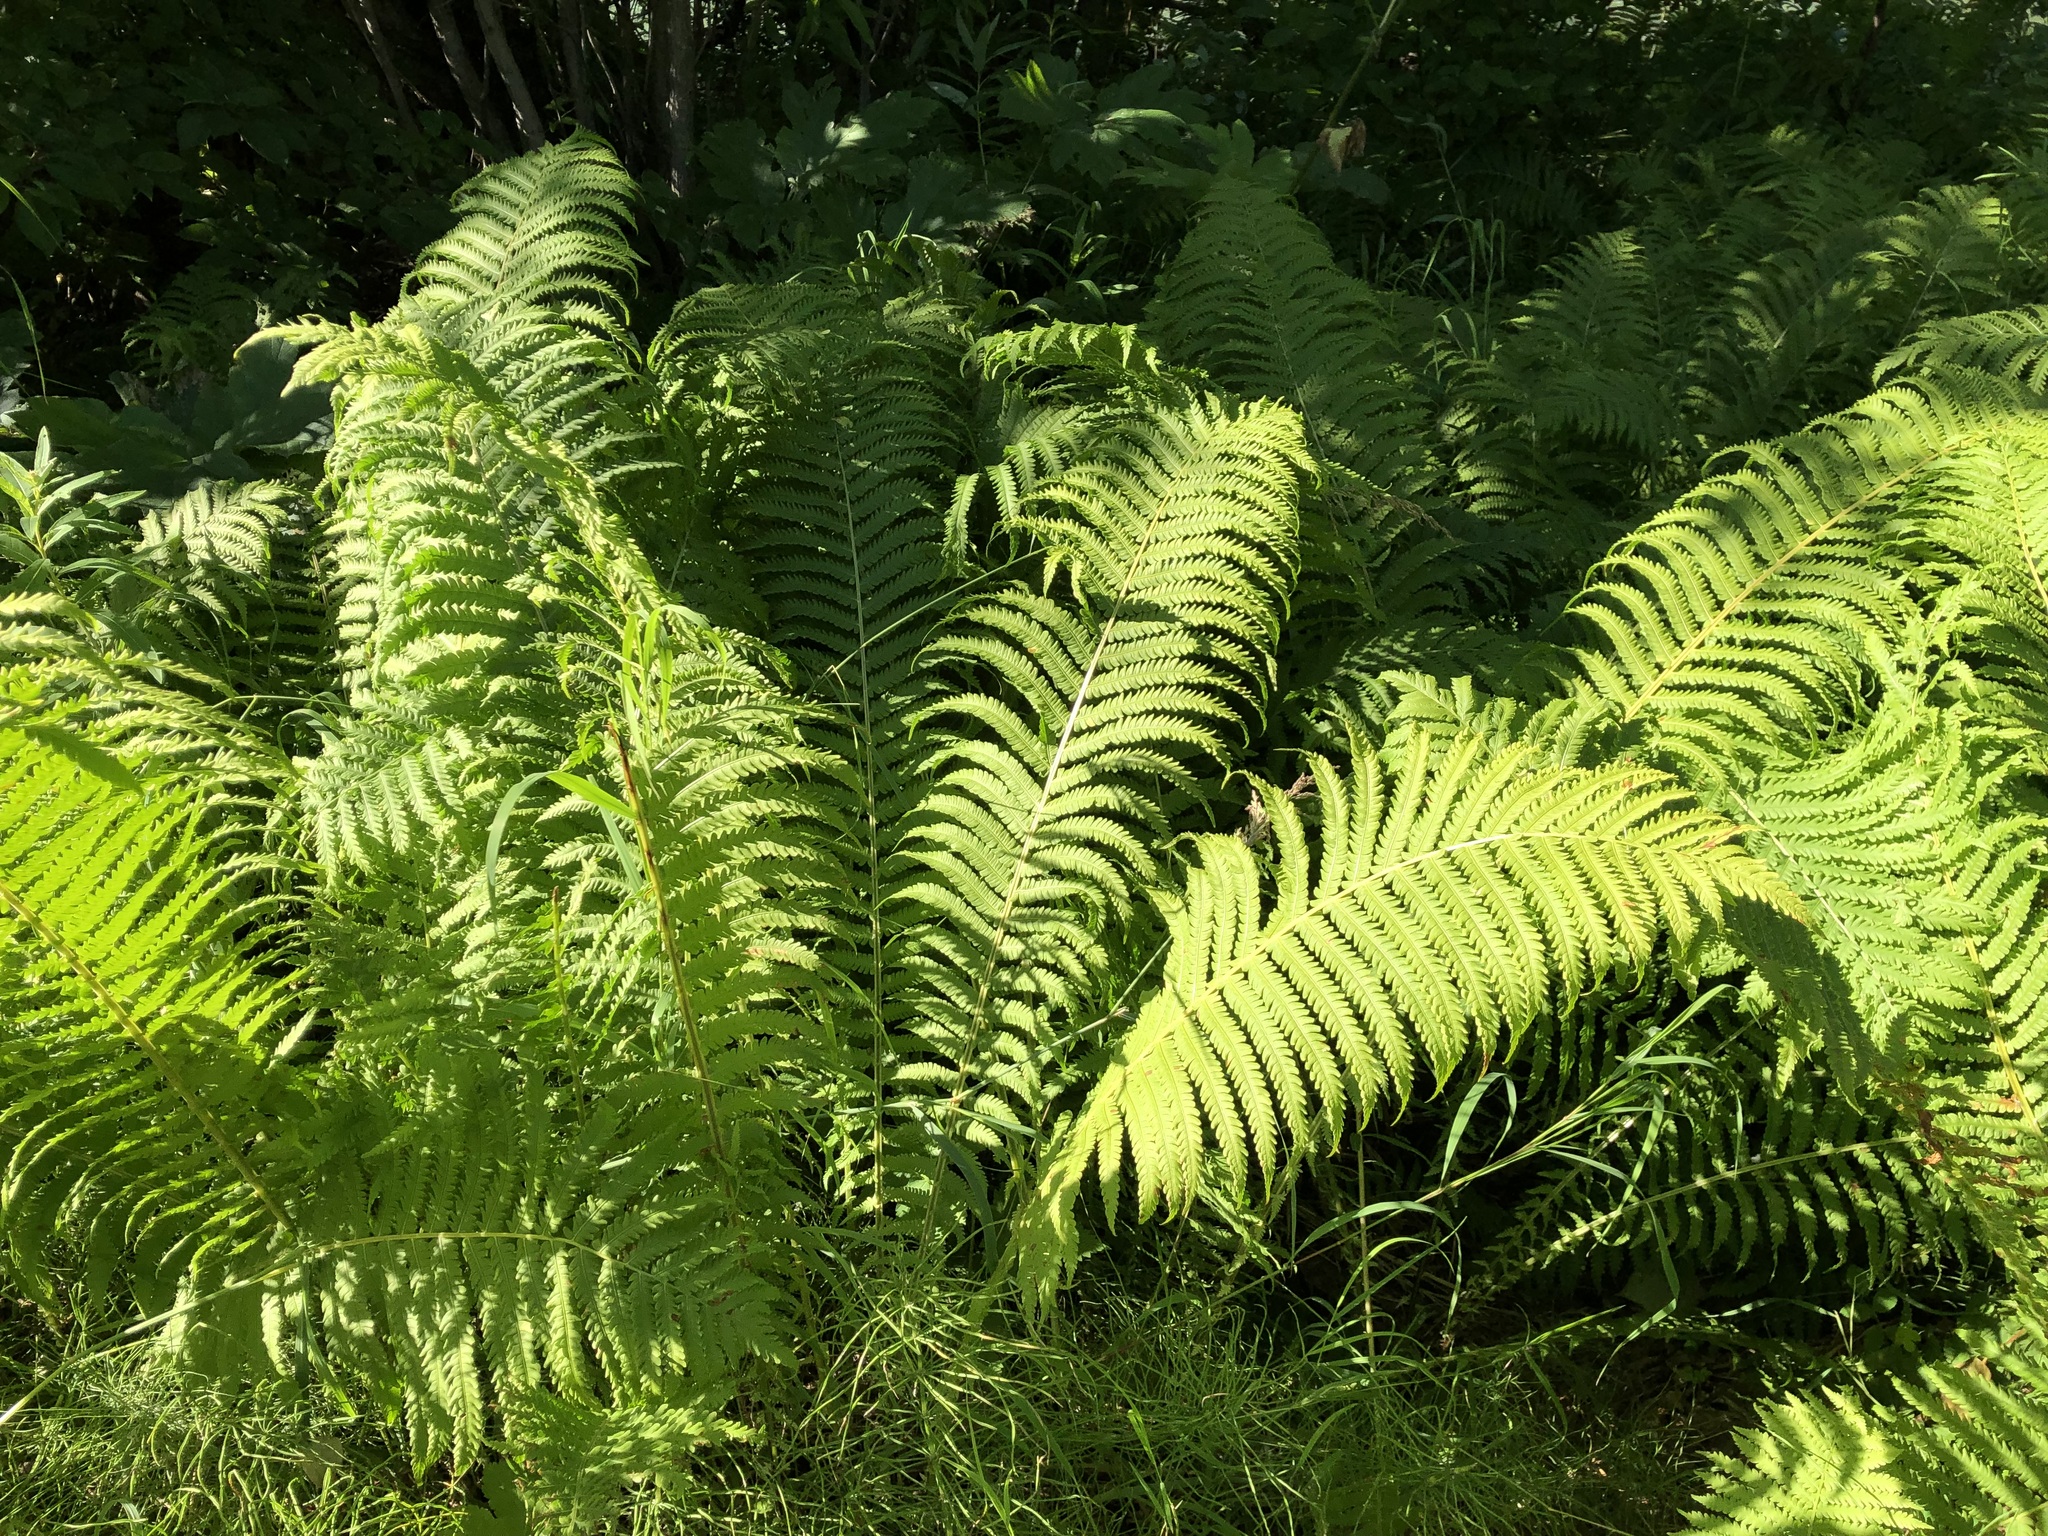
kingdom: Plantae
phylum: Tracheophyta
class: Polypodiopsida
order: Polypodiales
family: Onocleaceae
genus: Matteuccia
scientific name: Matteuccia struthiopteris
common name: Ostrich fern
